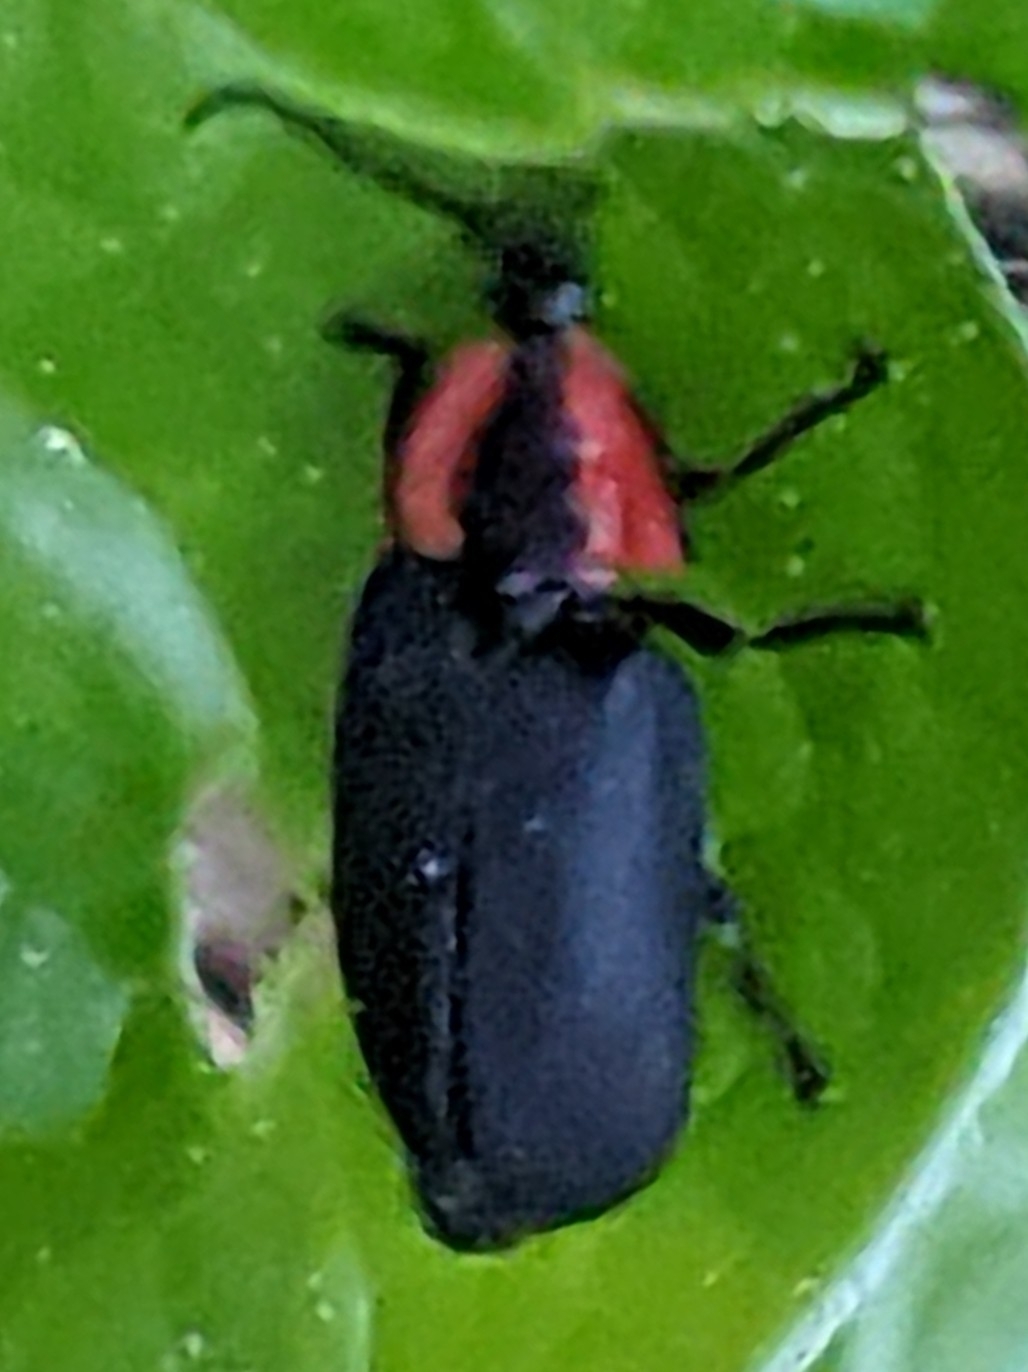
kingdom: Animalia
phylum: Arthropoda
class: Insecta
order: Coleoptera
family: Lampyridae
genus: Photinus
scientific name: Photinus californica
